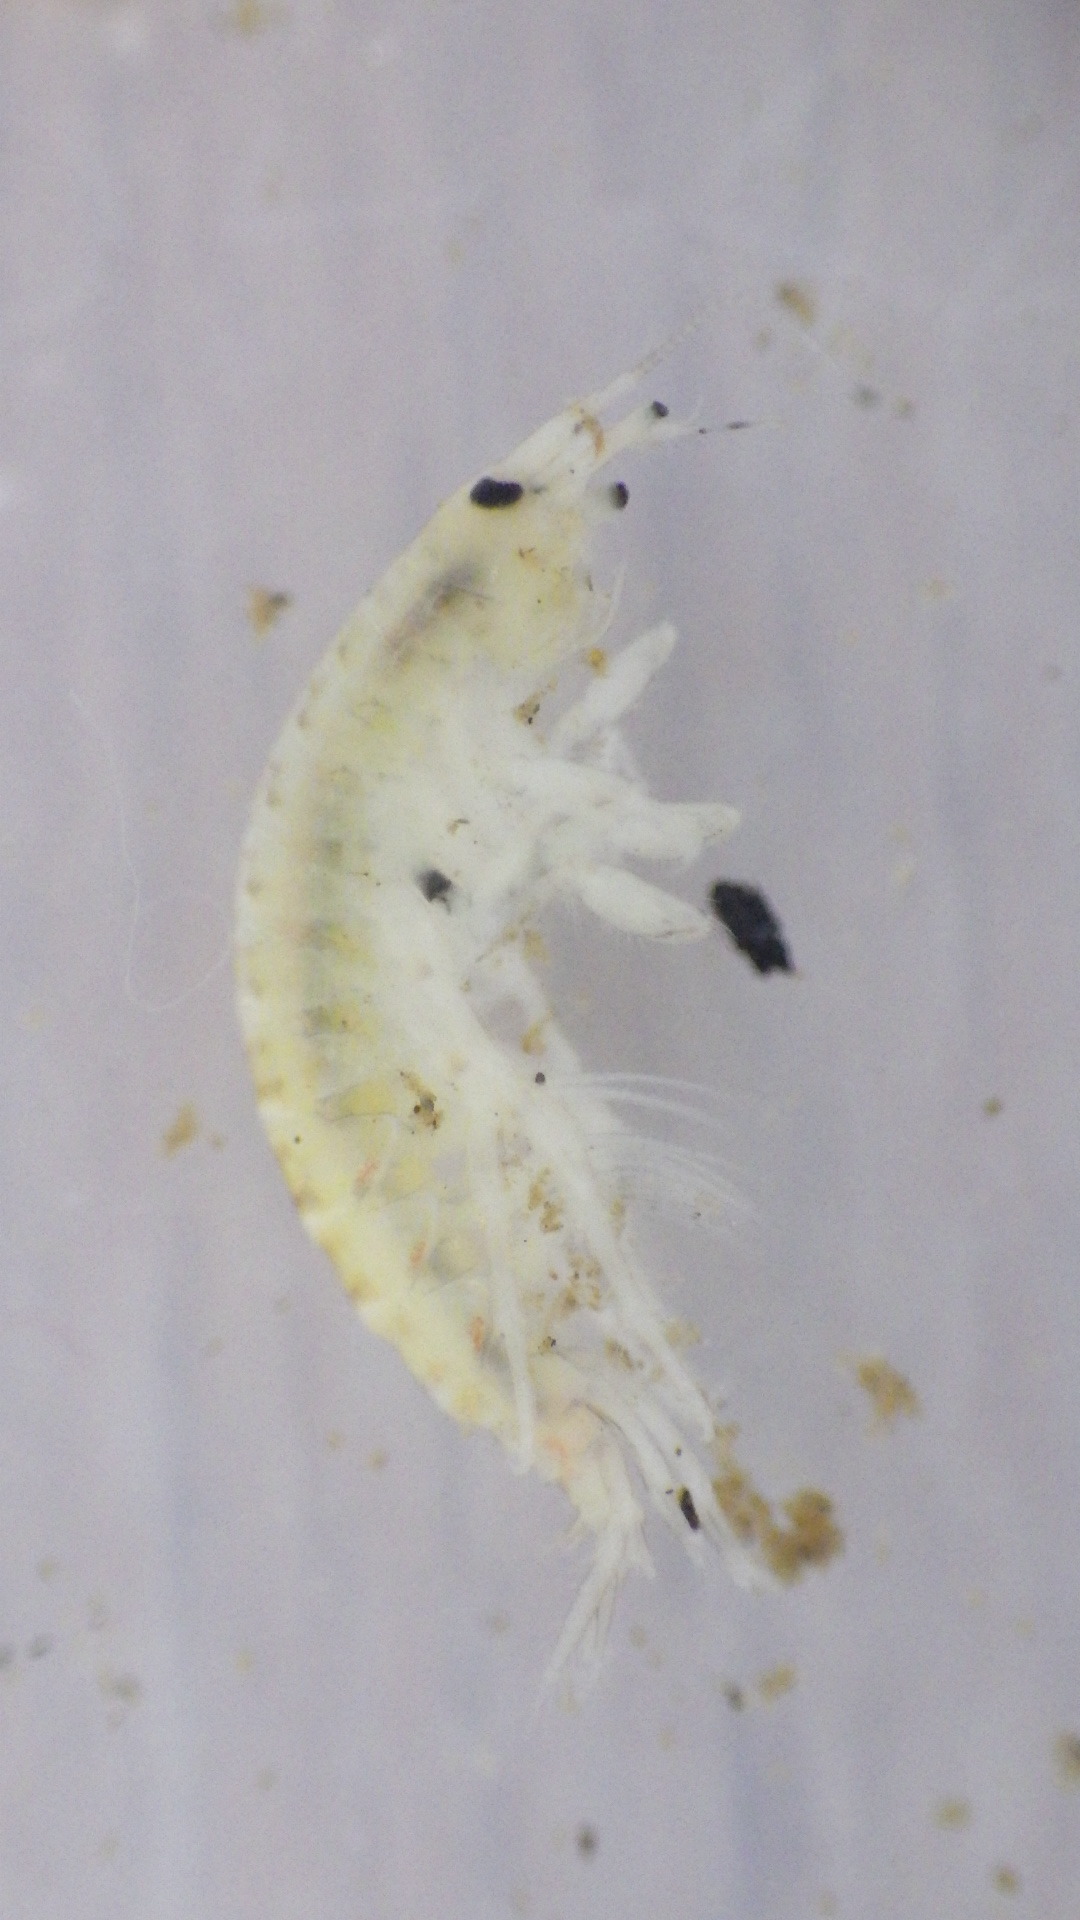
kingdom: Animalia
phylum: Arthropoda
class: Malacostraca
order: Amphipoda
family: Gammaridae
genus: Gammarus
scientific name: Gammarus fasciatus
